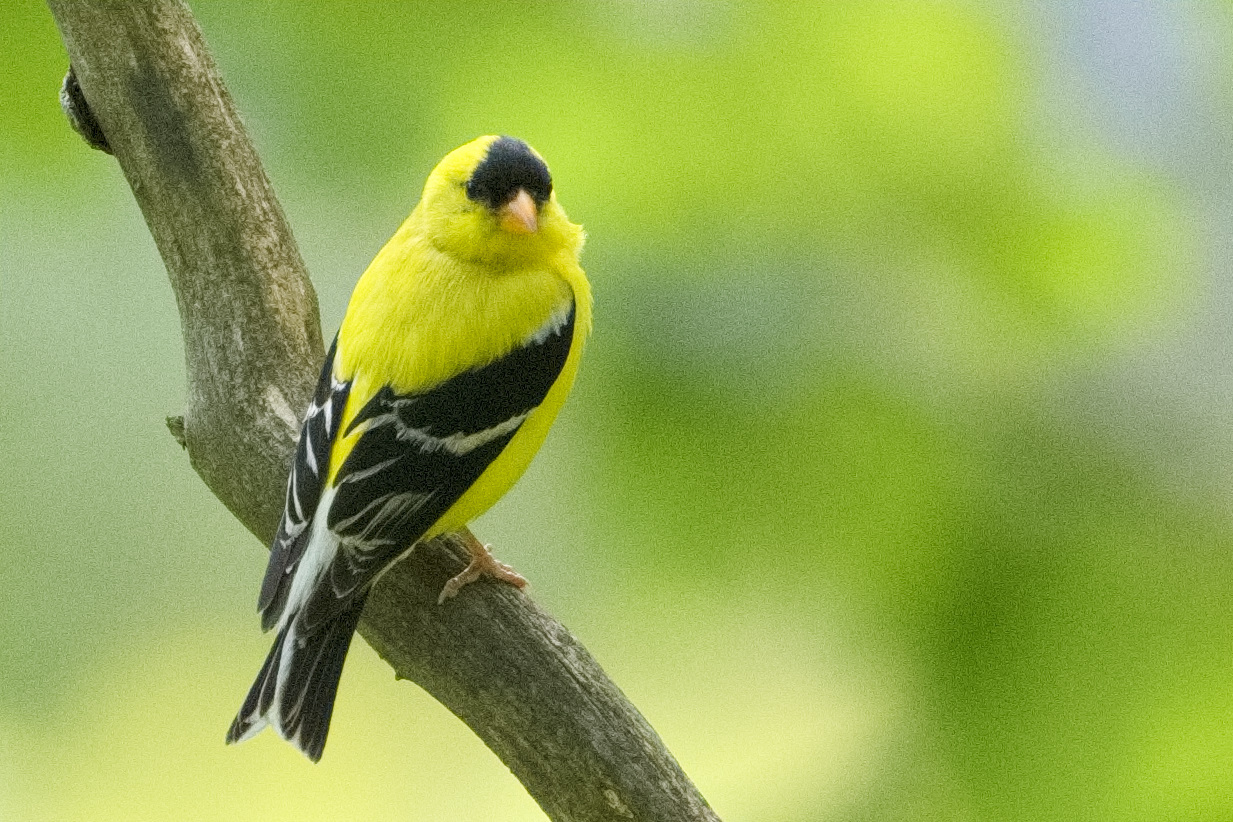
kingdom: Animalia
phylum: Chordata
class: Aves
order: Passeriformes
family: Fringillidae
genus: Spinus
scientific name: Spinus tristis
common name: American goldfinch
